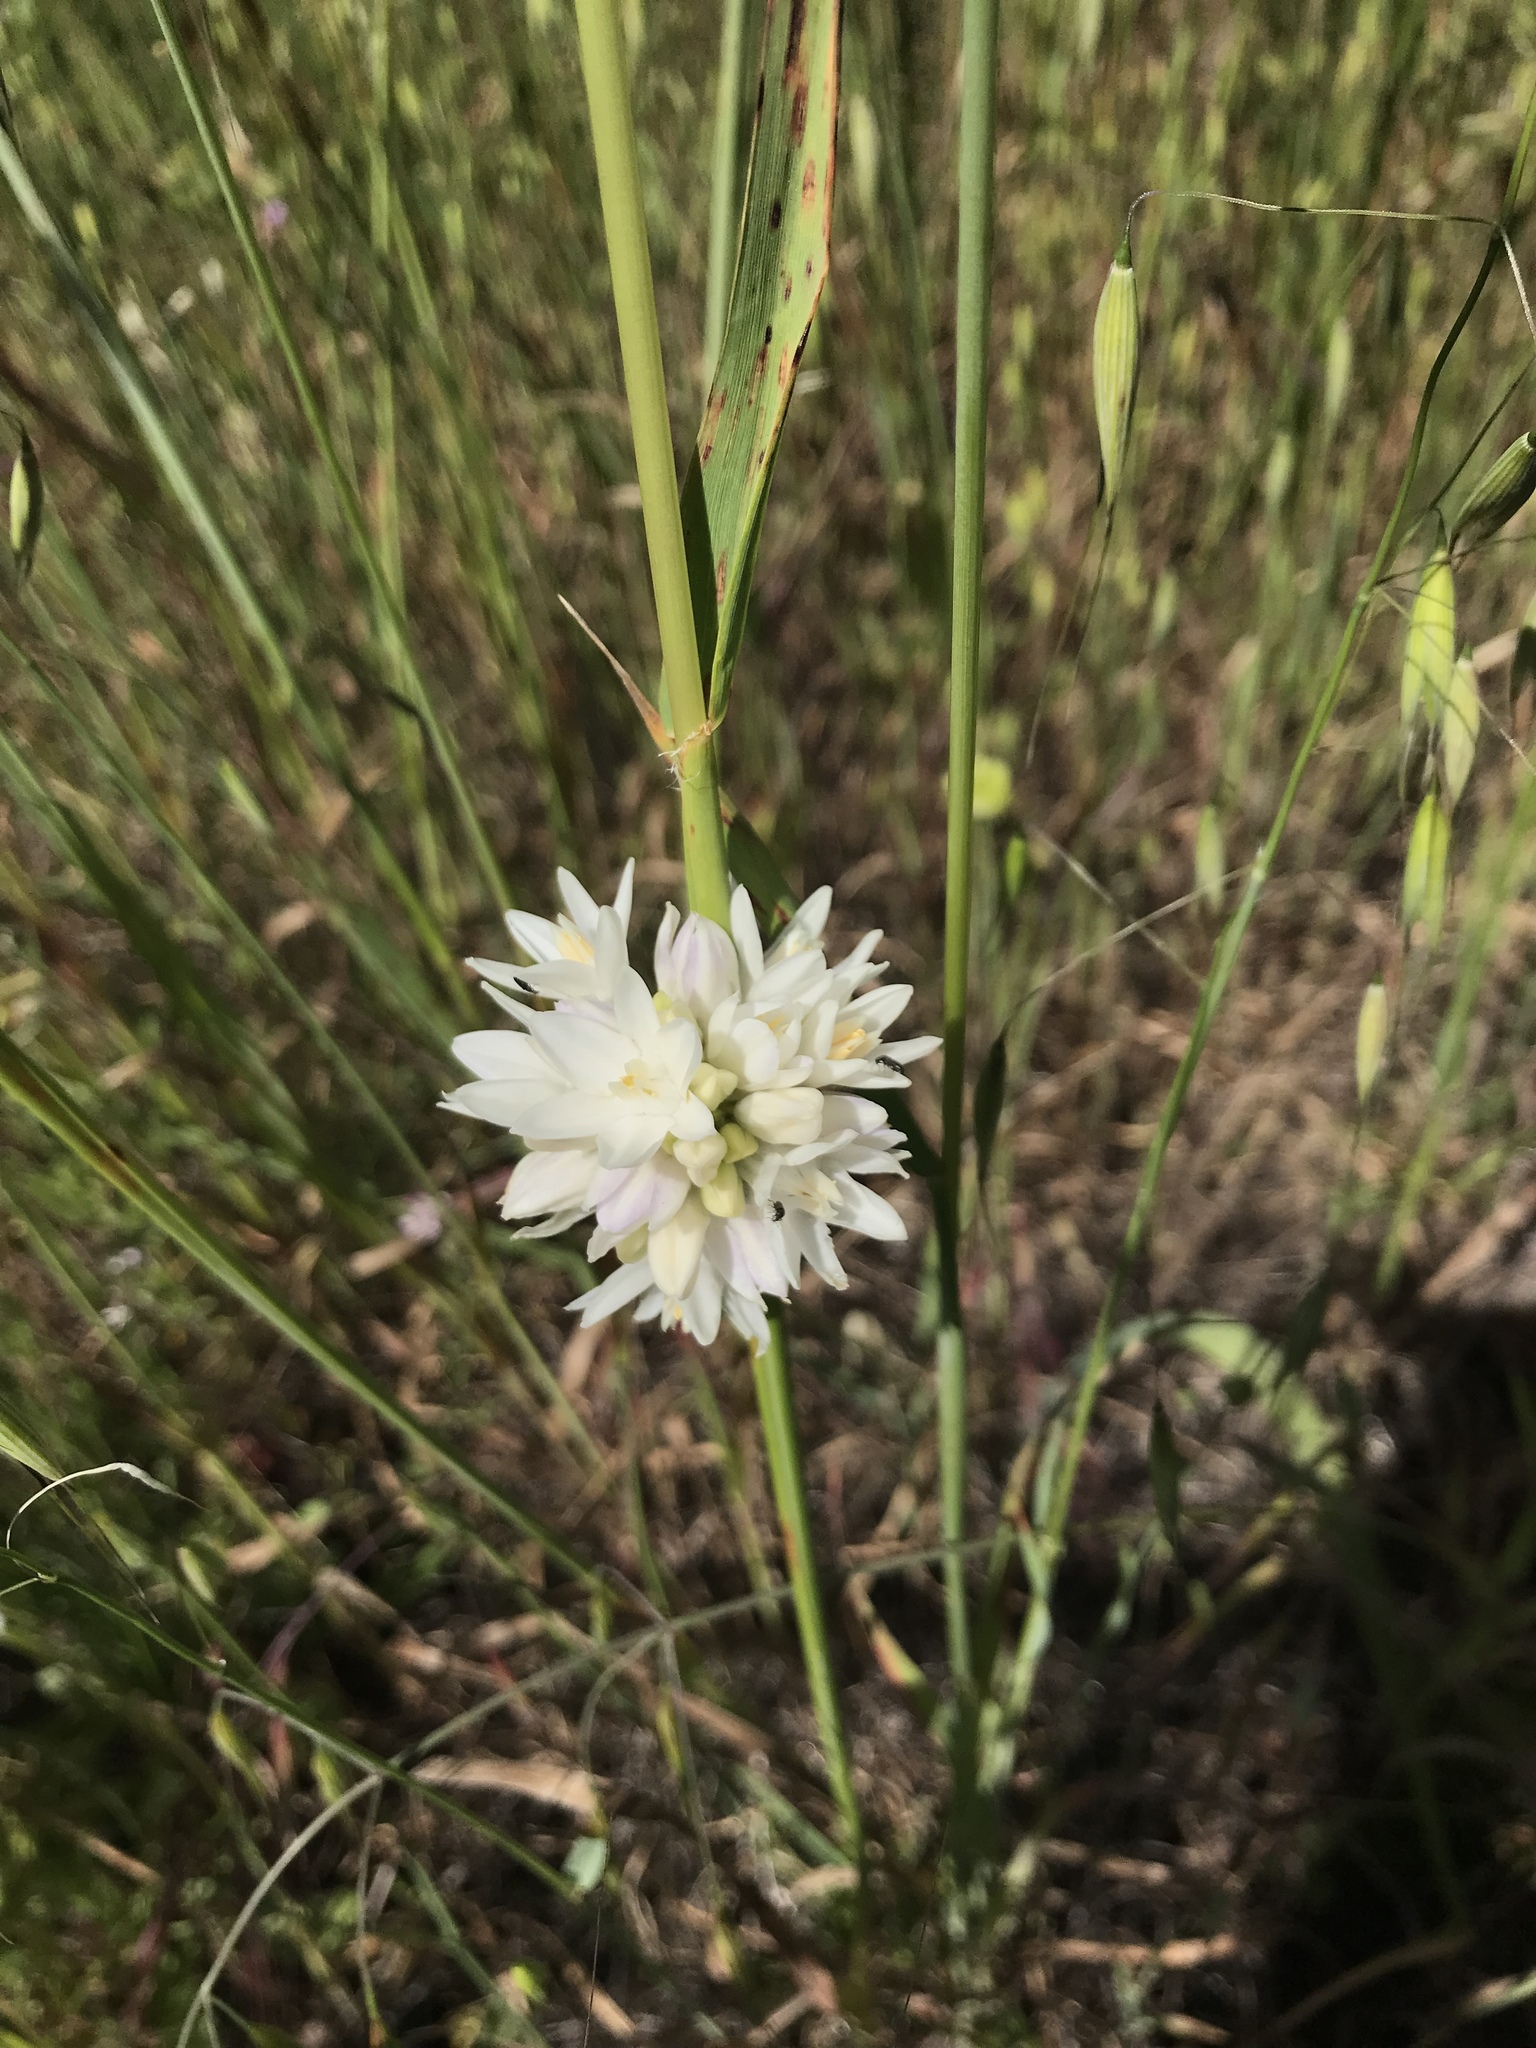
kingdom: Plantae
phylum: Tracheophyta
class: Liliopsida
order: Asparagales
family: Asparagaceae
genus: Dipterostemon
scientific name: Dipterostemon capitatus
